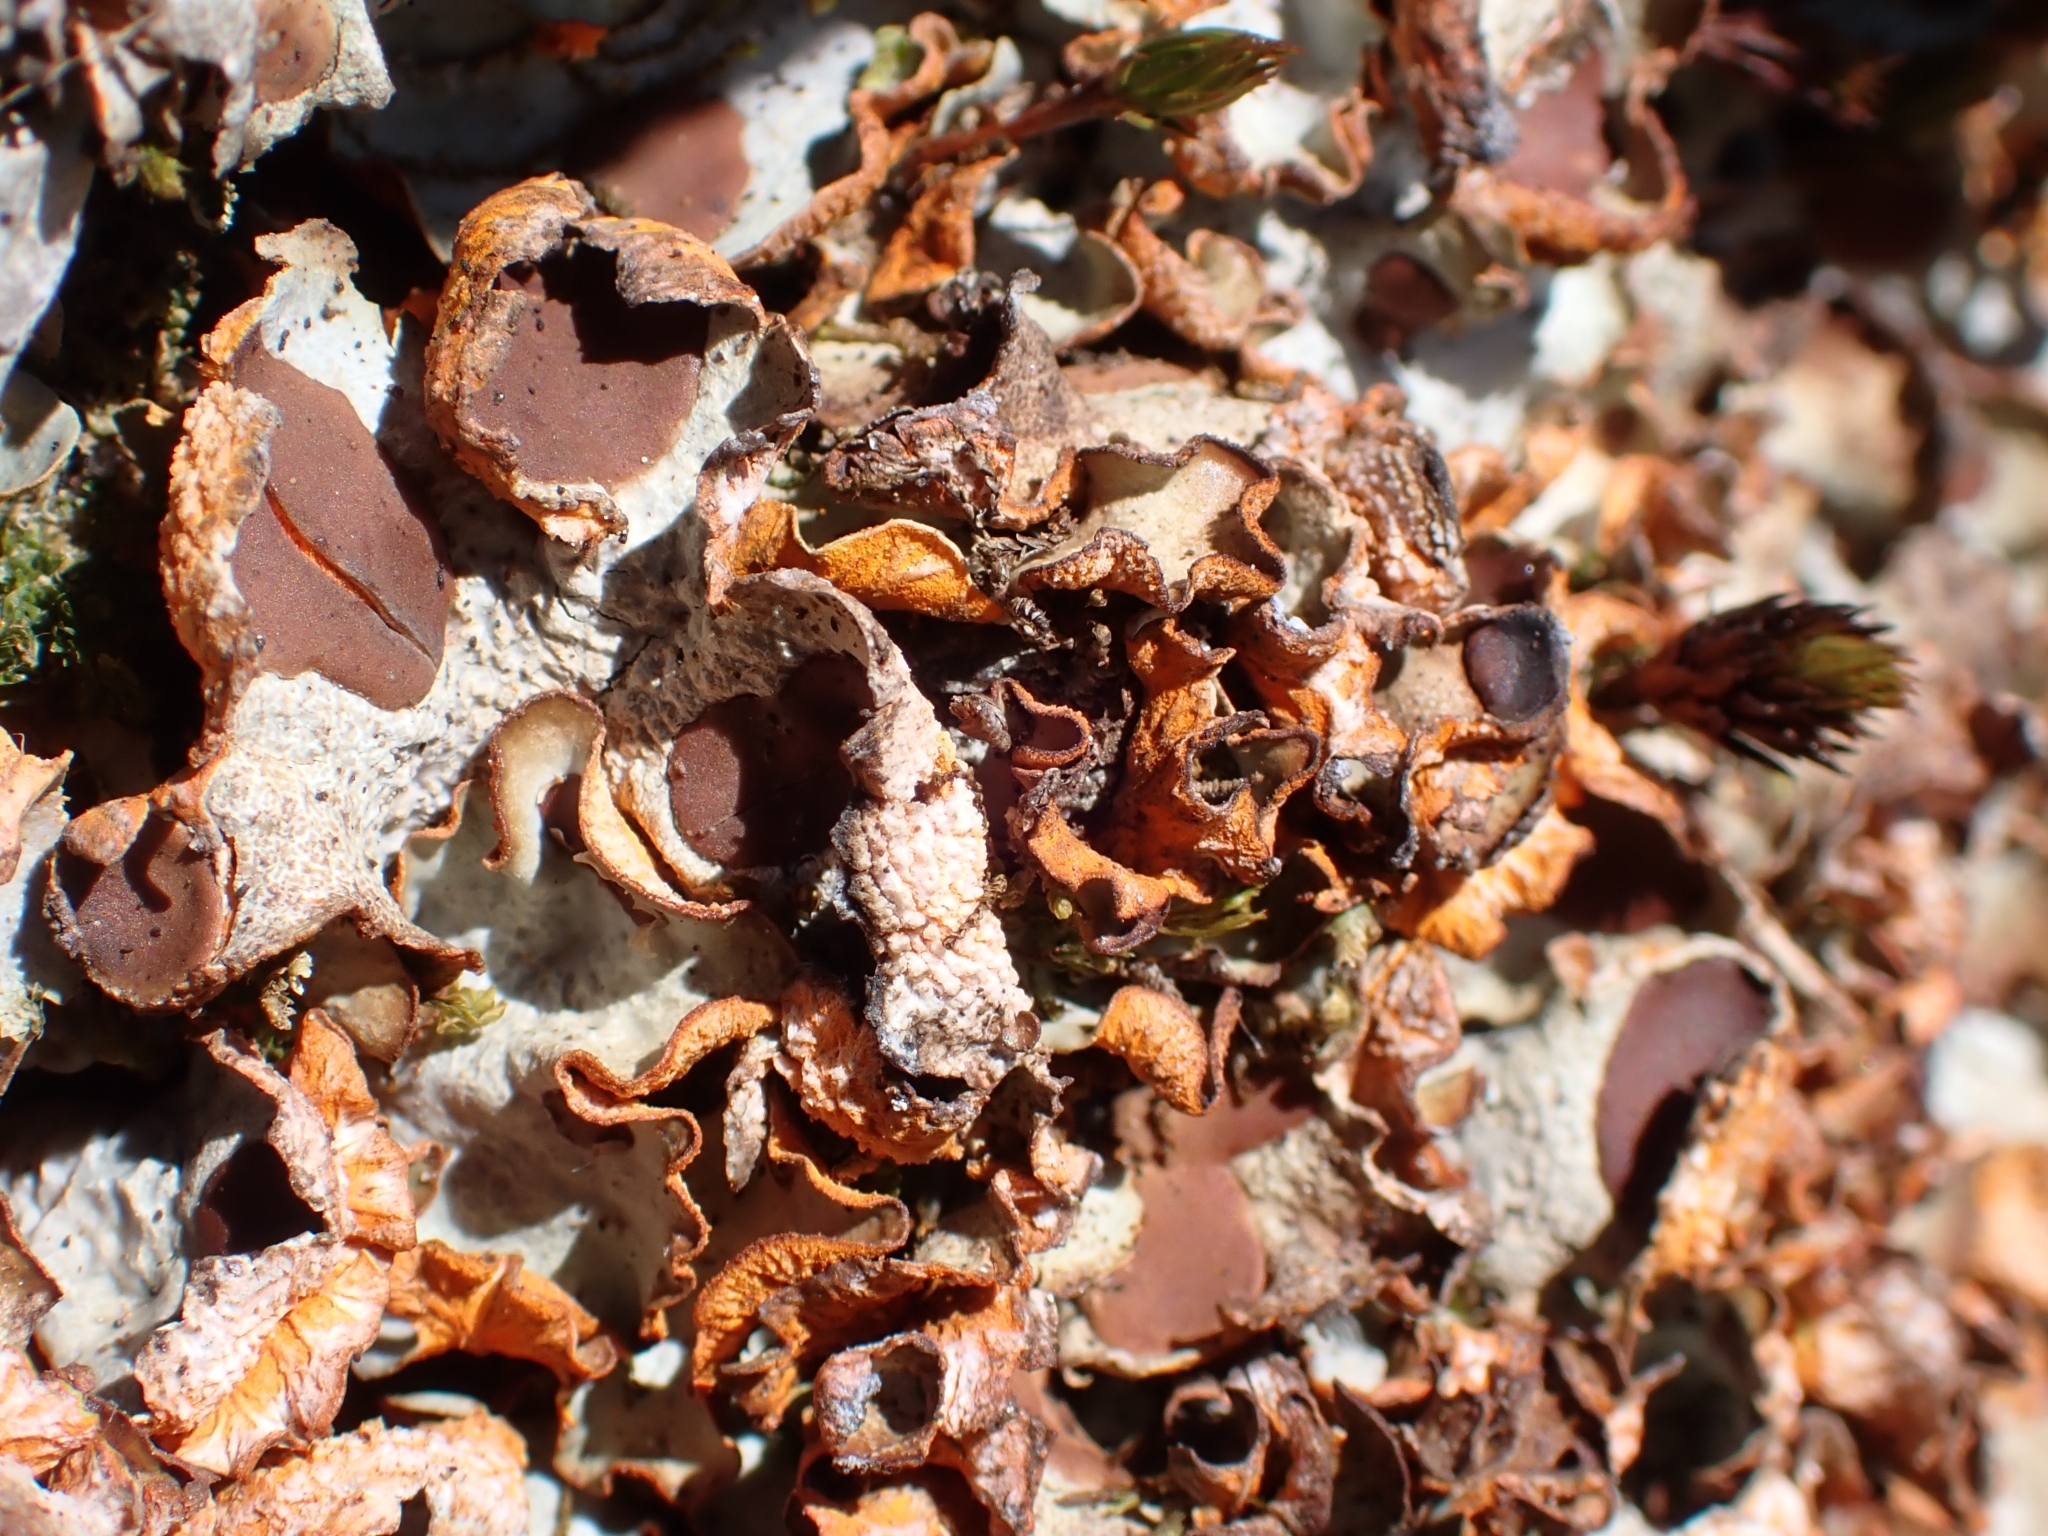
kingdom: Fungi
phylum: Ascomycota
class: Lecanoromycetes
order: Peltigerales
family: Peltigeraceae
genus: Solorina
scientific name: Solorina crocea
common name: Mountain saffron
